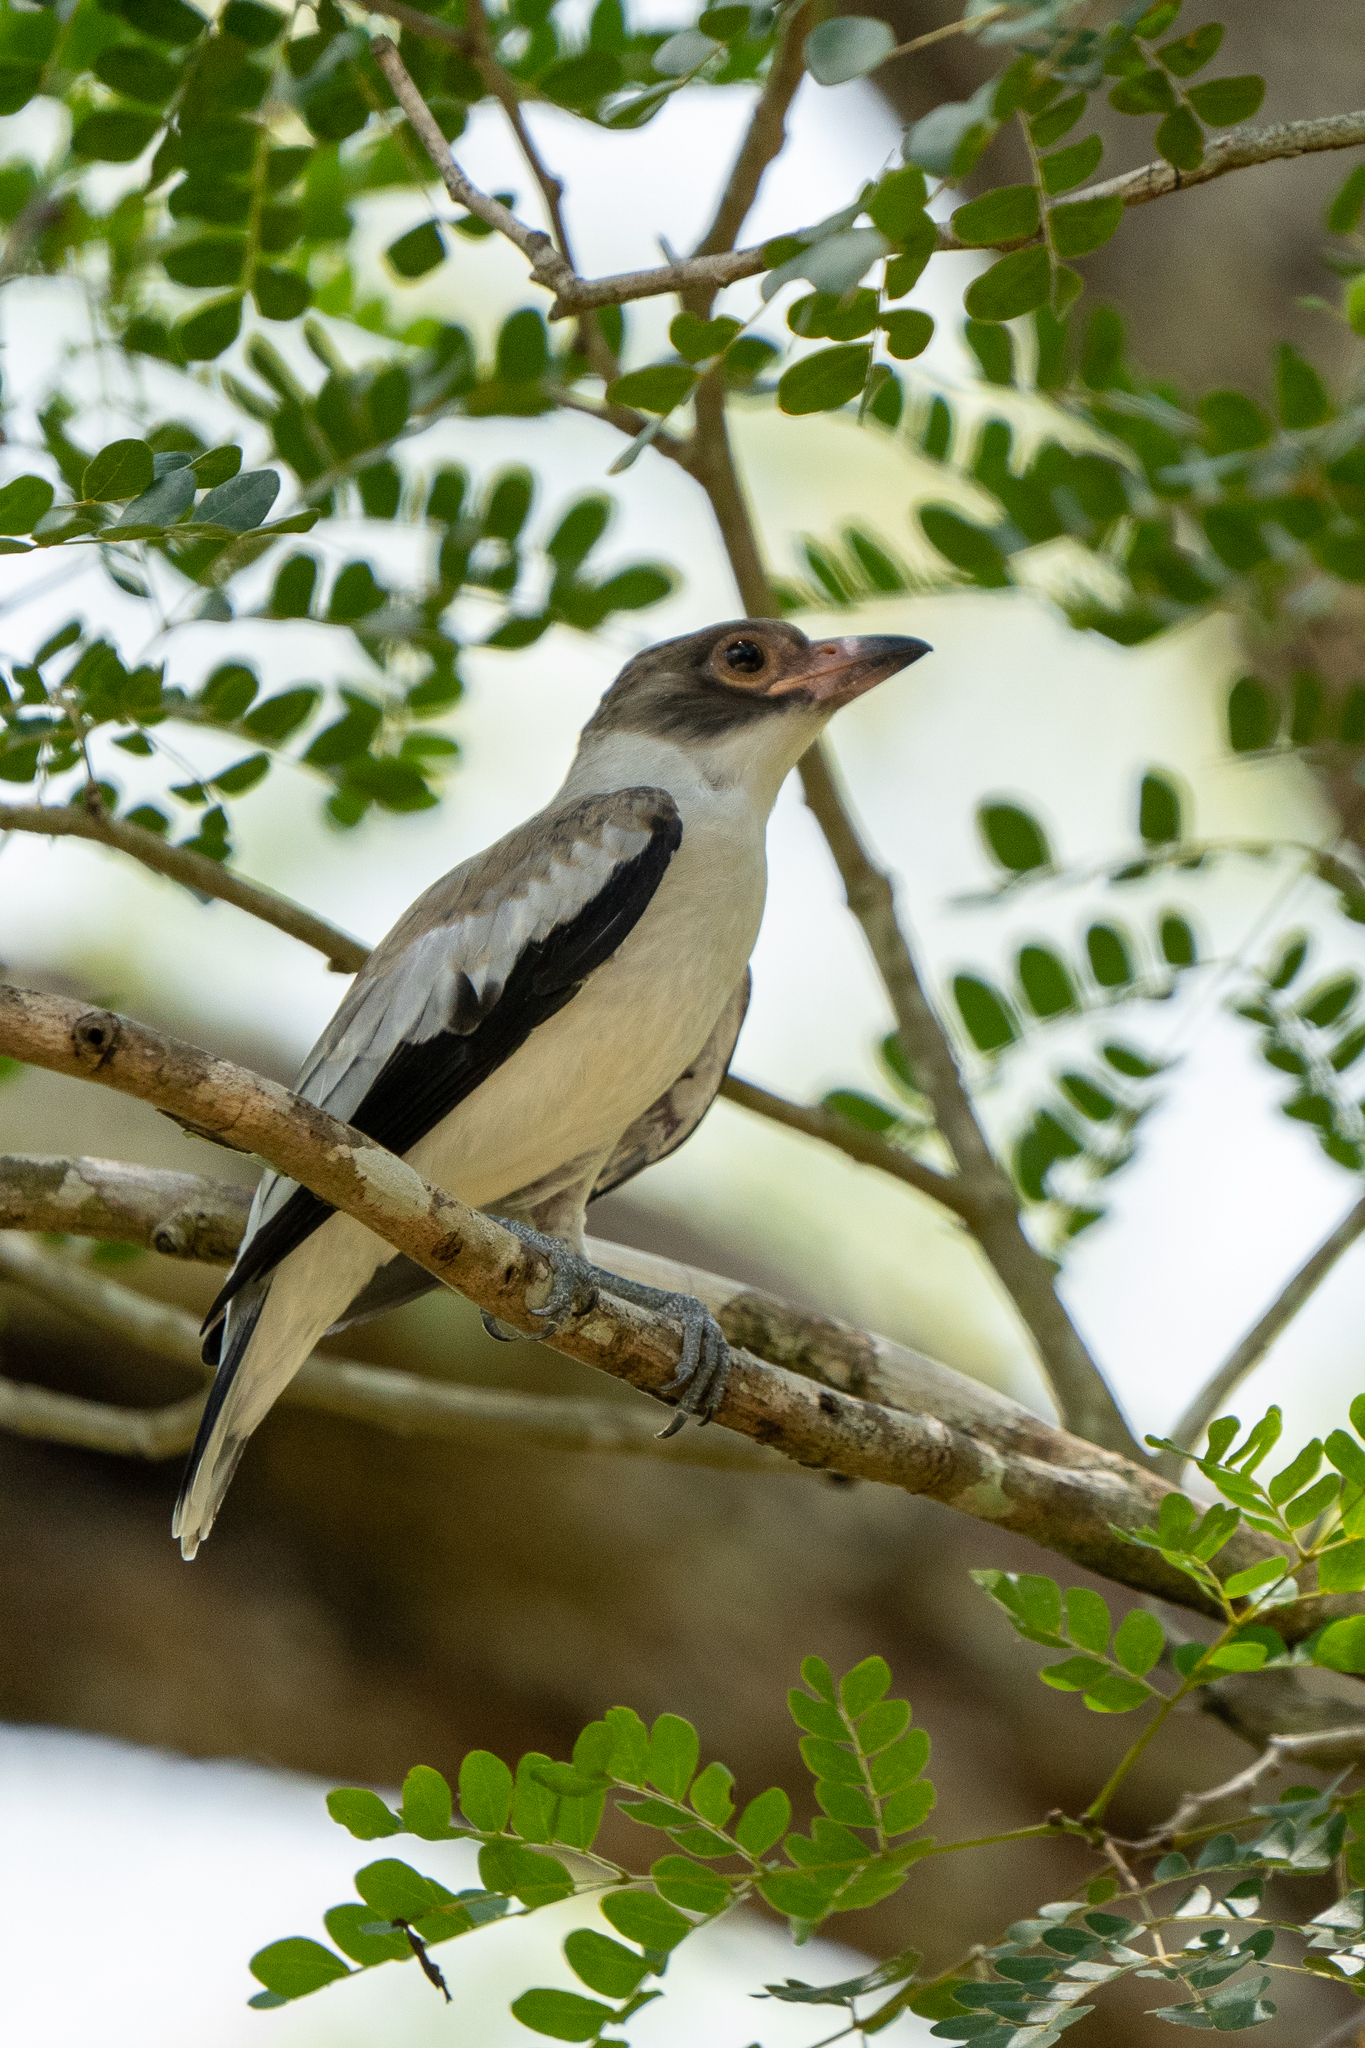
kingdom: Animalia
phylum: Chordata
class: Aves
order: Passeriformes
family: Cotingidae
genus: Tityra
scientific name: Tityra semifasciata
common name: Masked tityra
